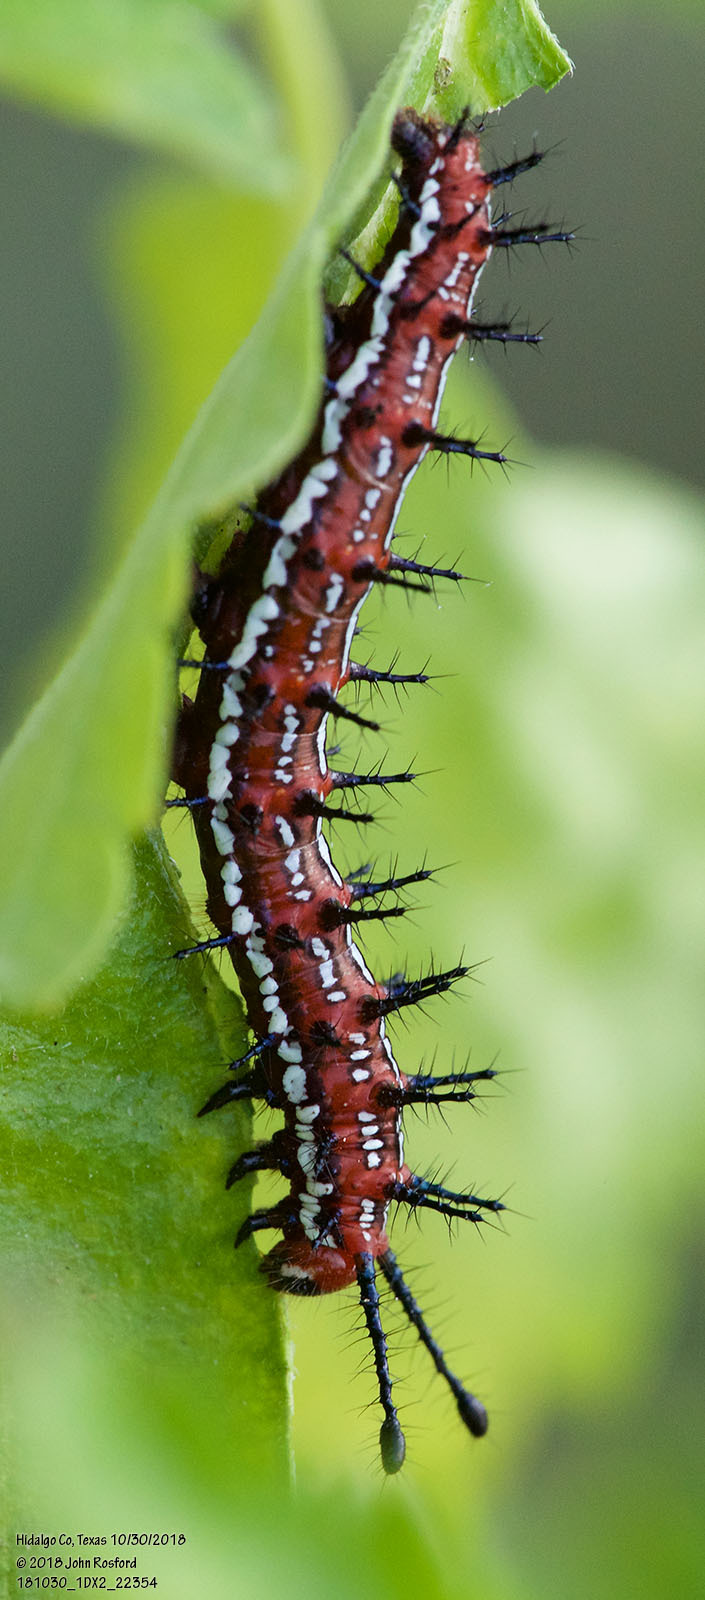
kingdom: Animalia
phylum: Arthropoda
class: Insecta
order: Lepidoptera
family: Nymphalidae
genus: Euptoieta
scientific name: Euptoieta claudia
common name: Variegated fritillary
